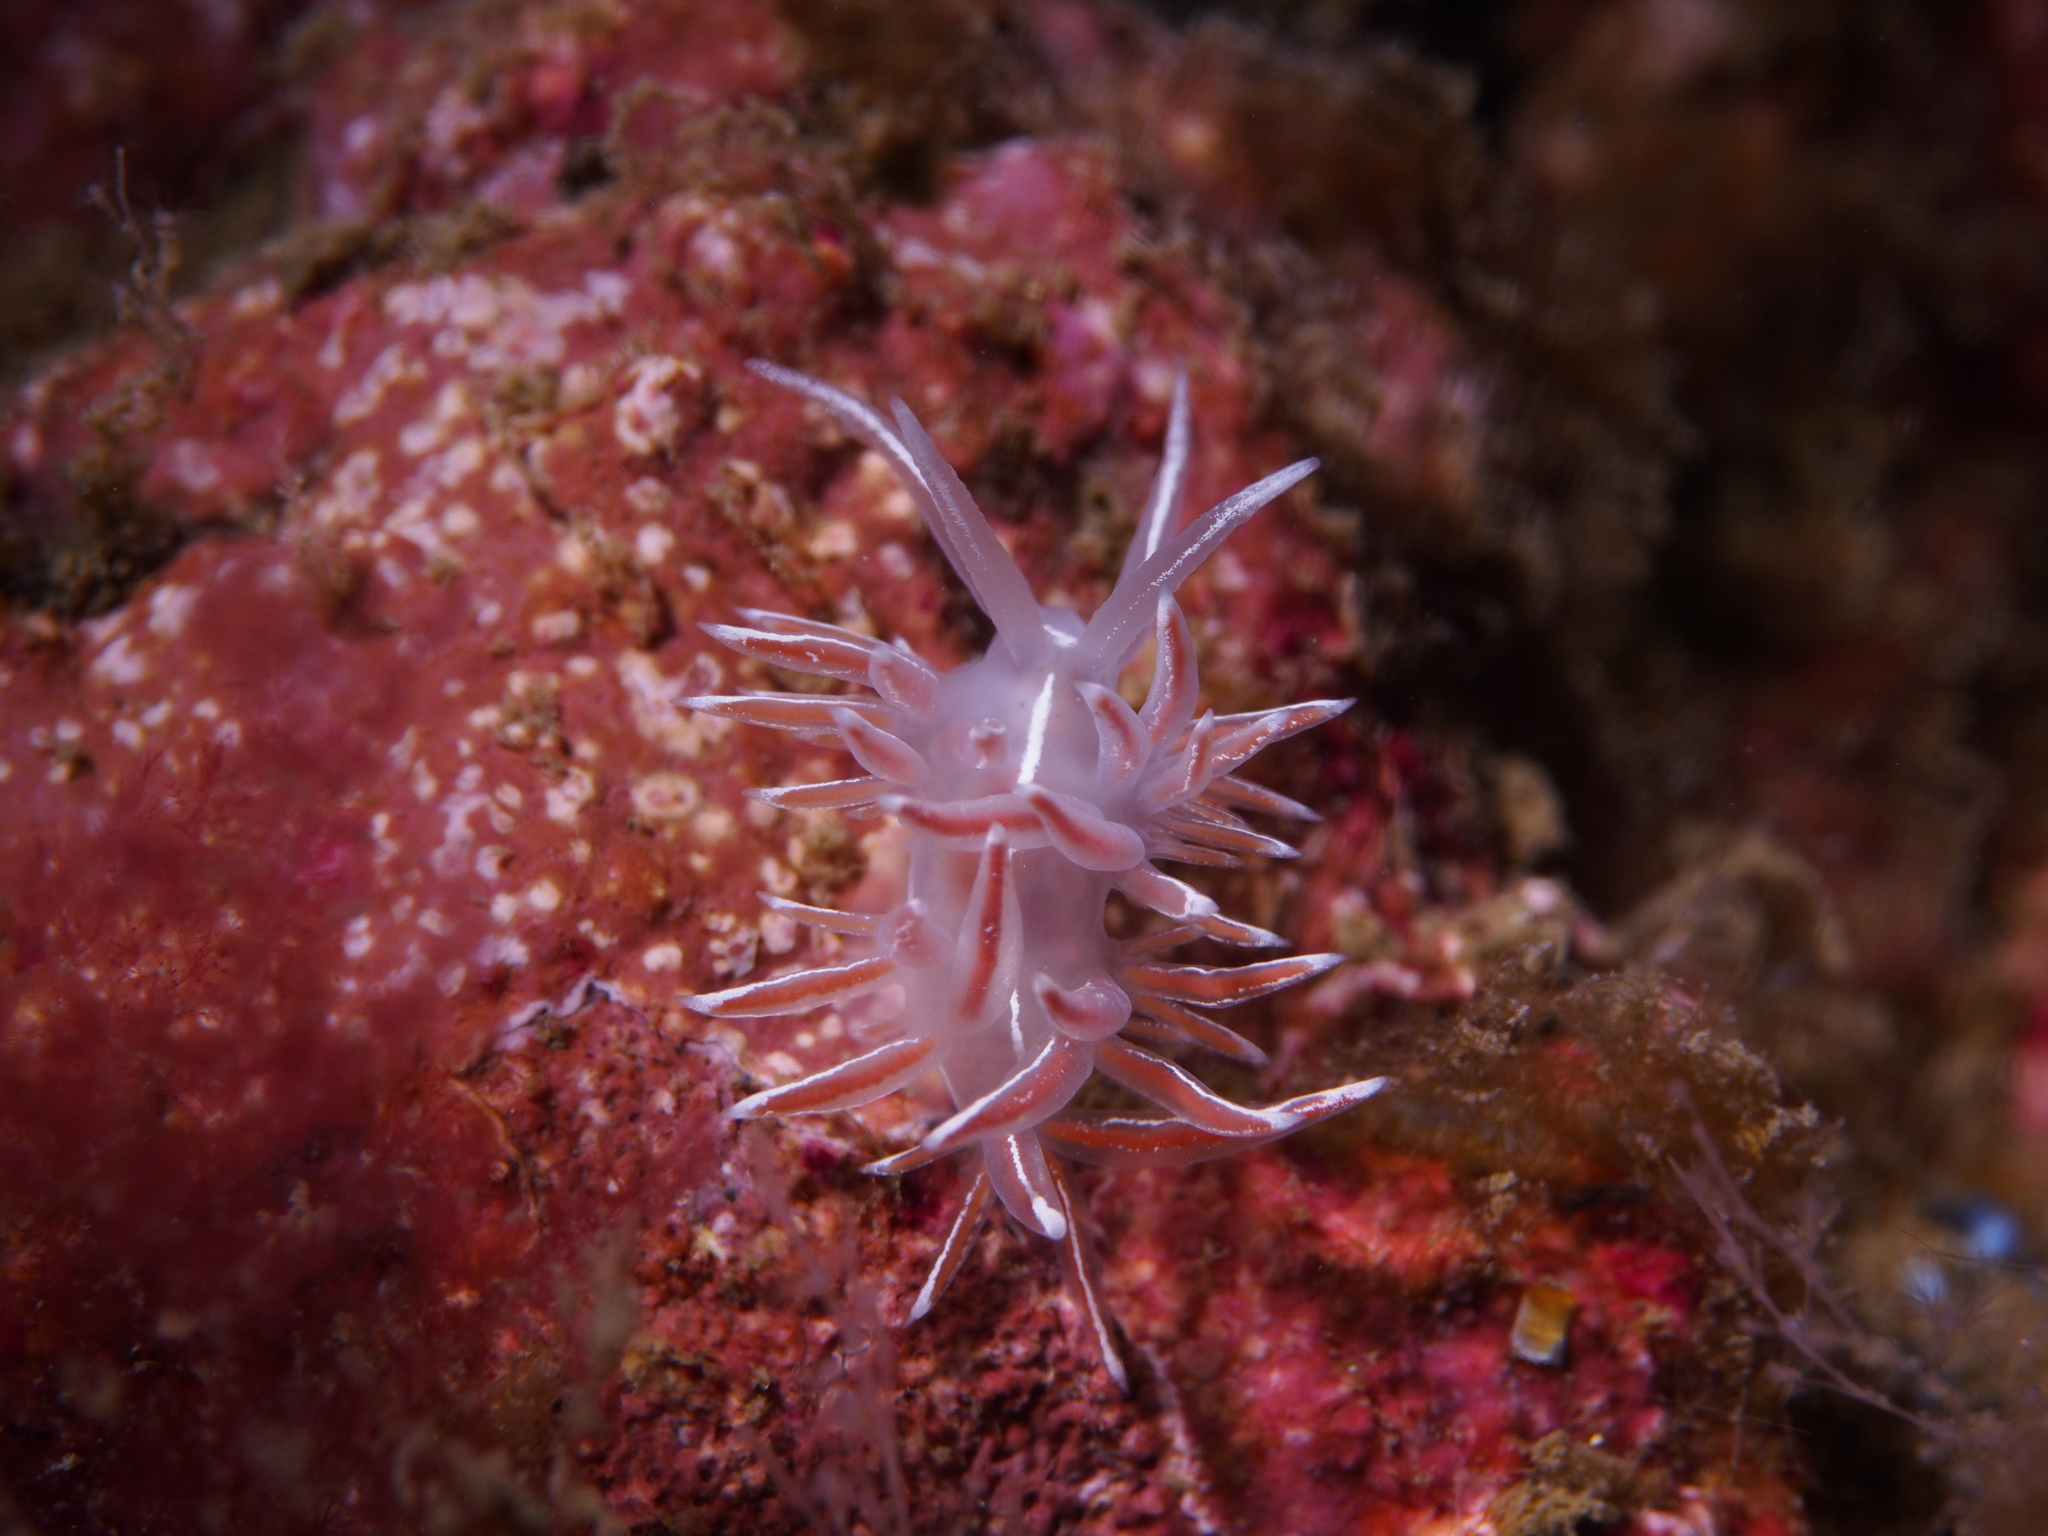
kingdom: Animalia
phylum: Mollusca
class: Gastropoda
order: Nudibranchia
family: Coryphellidae
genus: Coryphella
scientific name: Coryphella lineata
